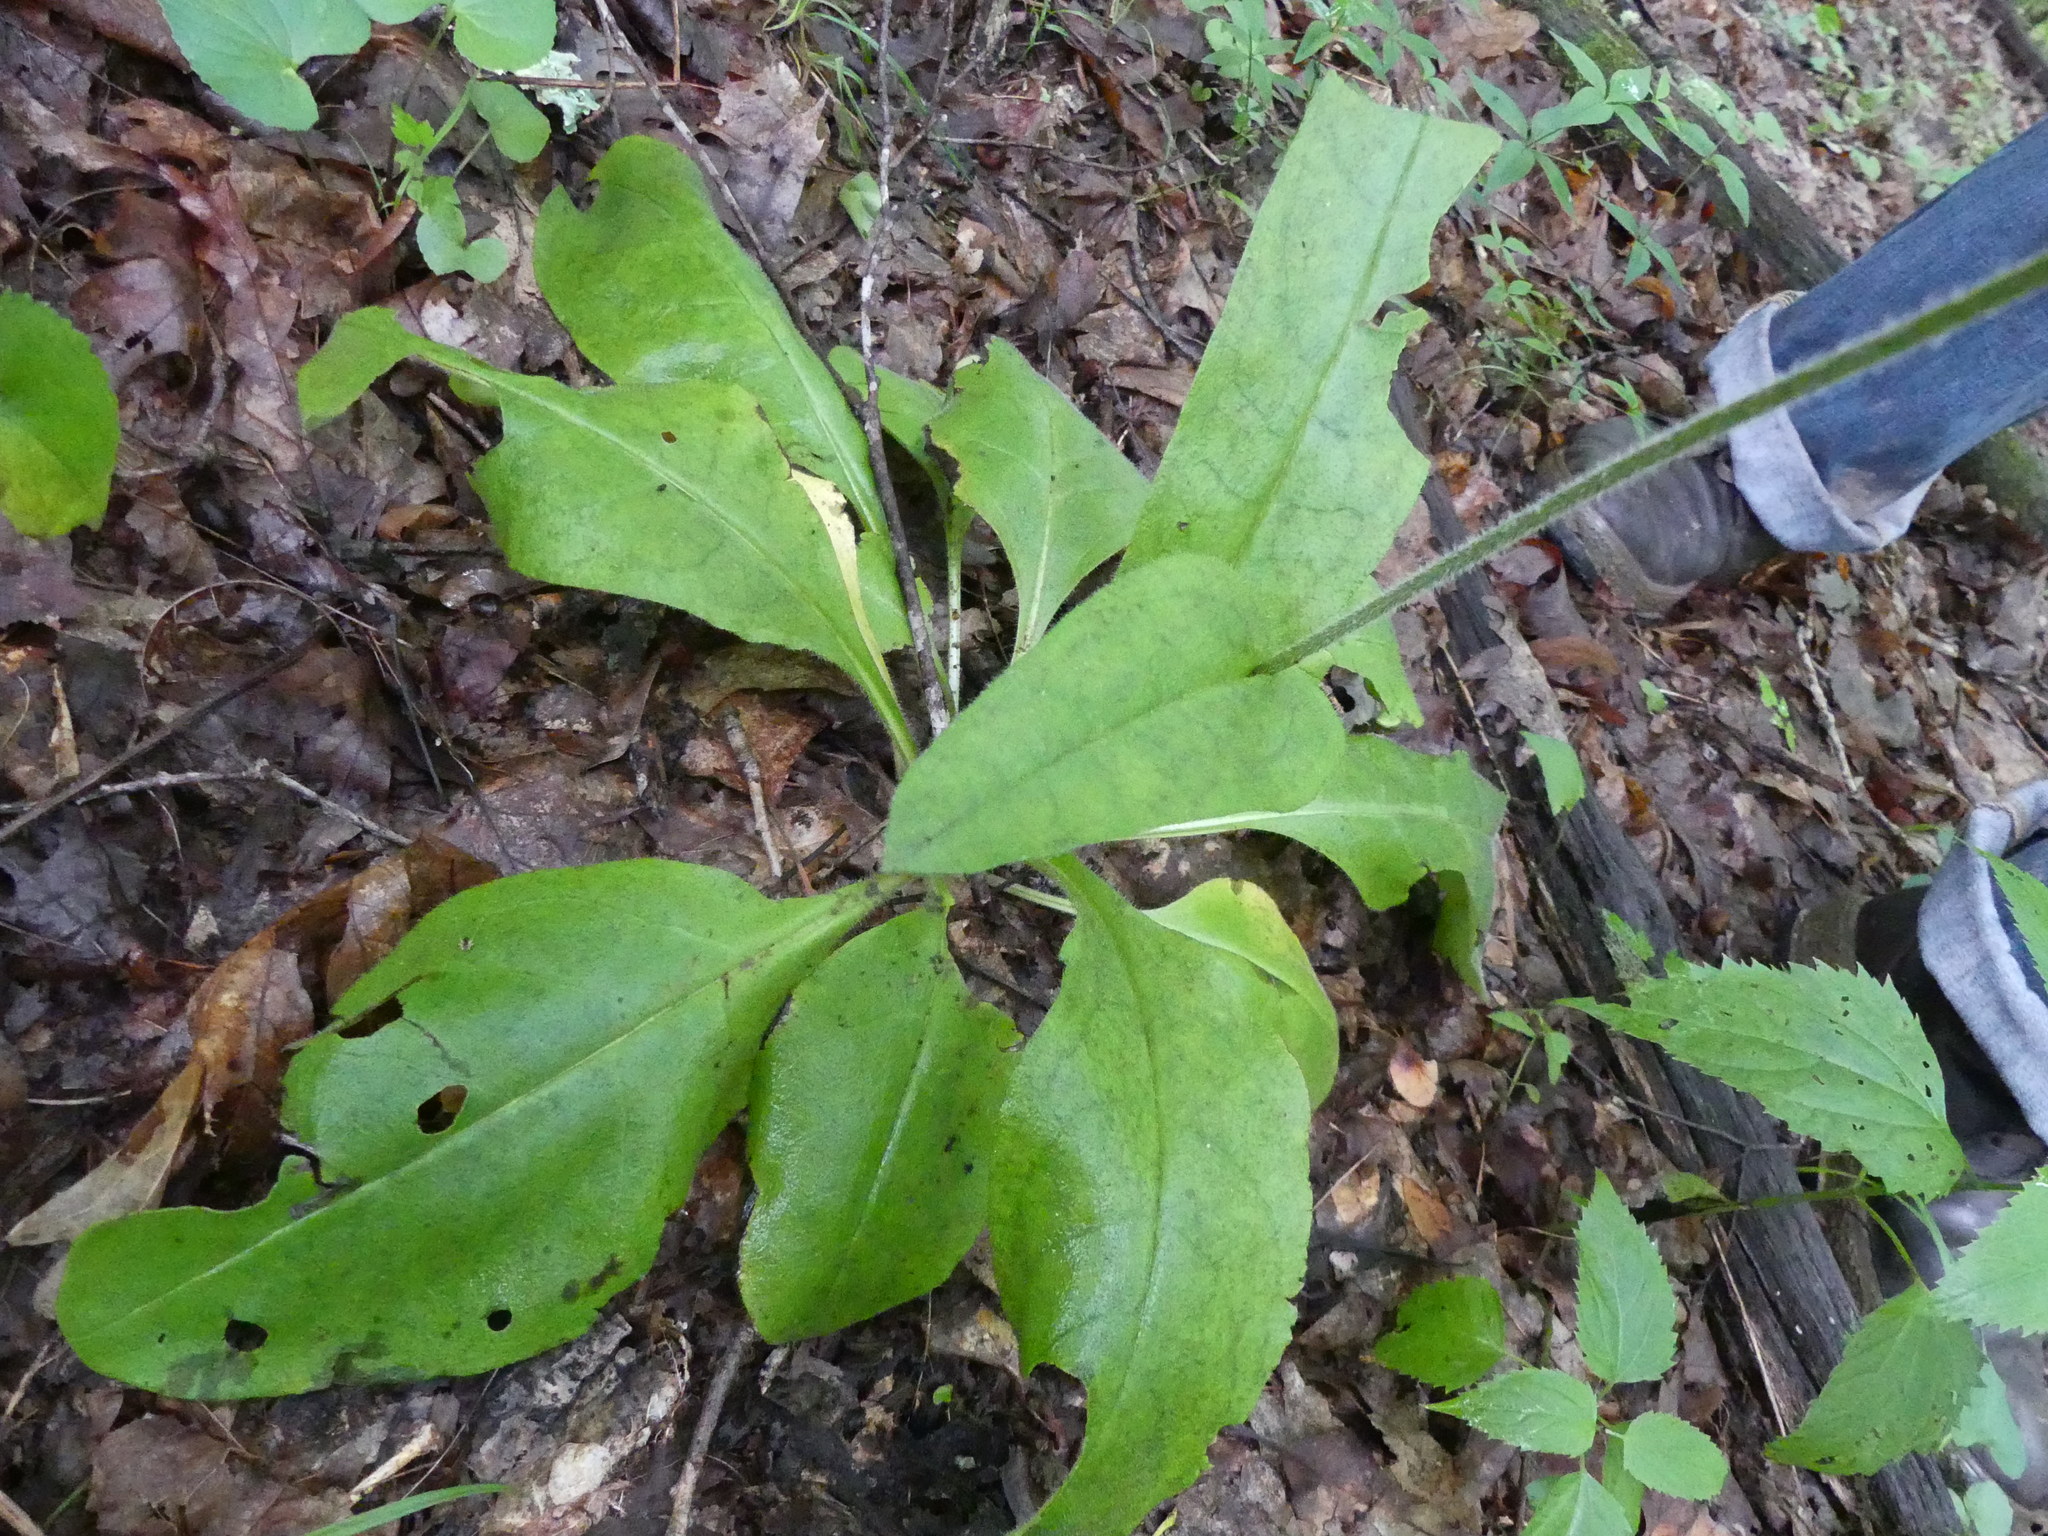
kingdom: Plantae
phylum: Tracheophyta
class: Magnoliopsida
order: Boraginales
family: Boraginaceae
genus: Andersonglossum
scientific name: Andersonglossum virginianum
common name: Wild comfrey
